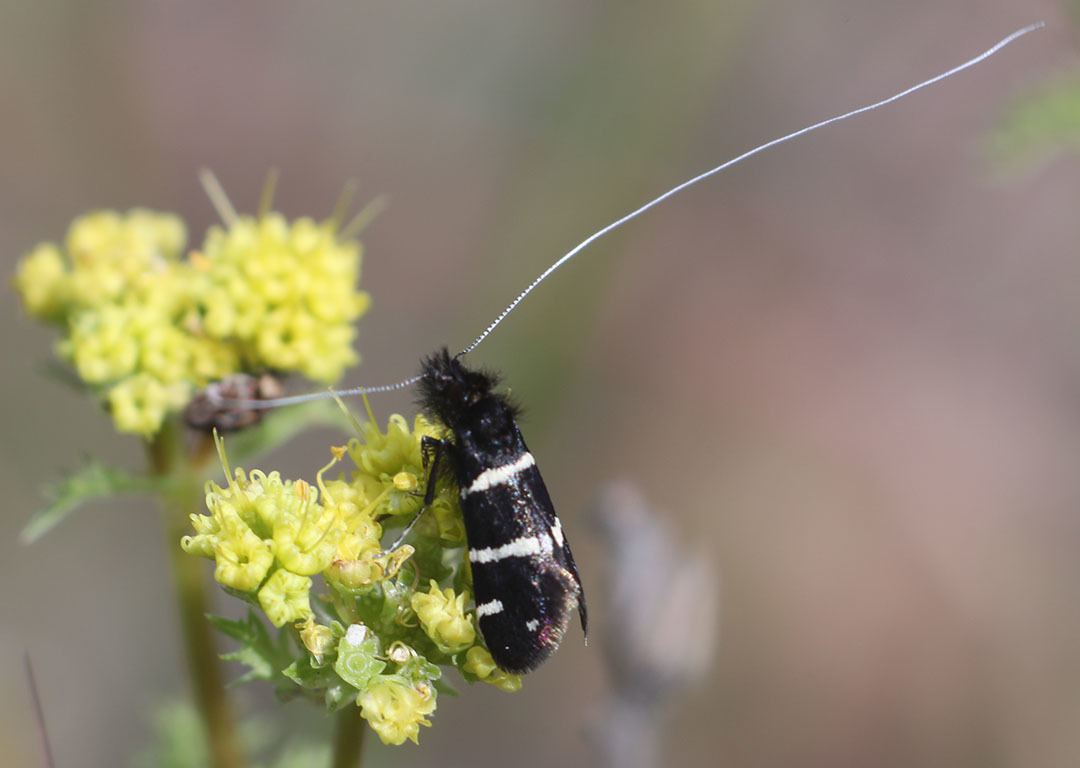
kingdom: Animalia
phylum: Arthropoda
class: Insecta
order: Lepidoptera
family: Adelidae
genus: Adela
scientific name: Adela trigrapha
